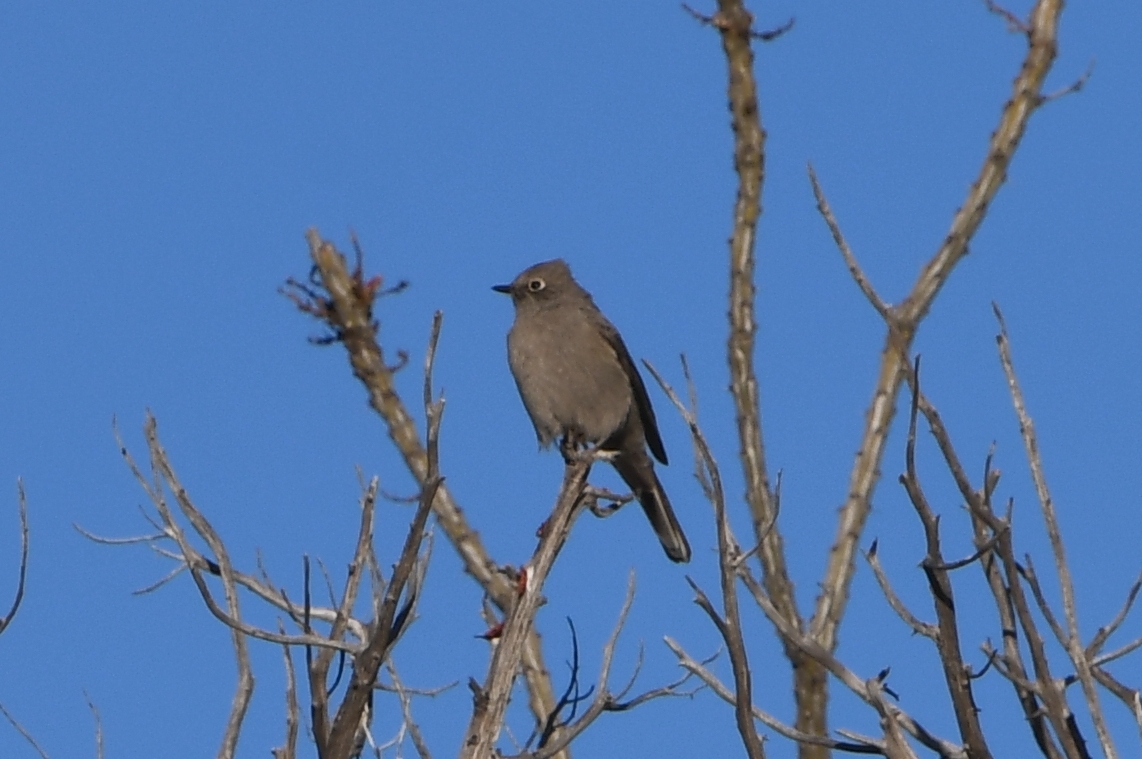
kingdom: Animalia
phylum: Chordata
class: Aves
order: Passeriformes
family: Turdidae
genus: Myadestes
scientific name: Myadestes townsendi
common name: Townsend's solitaire
